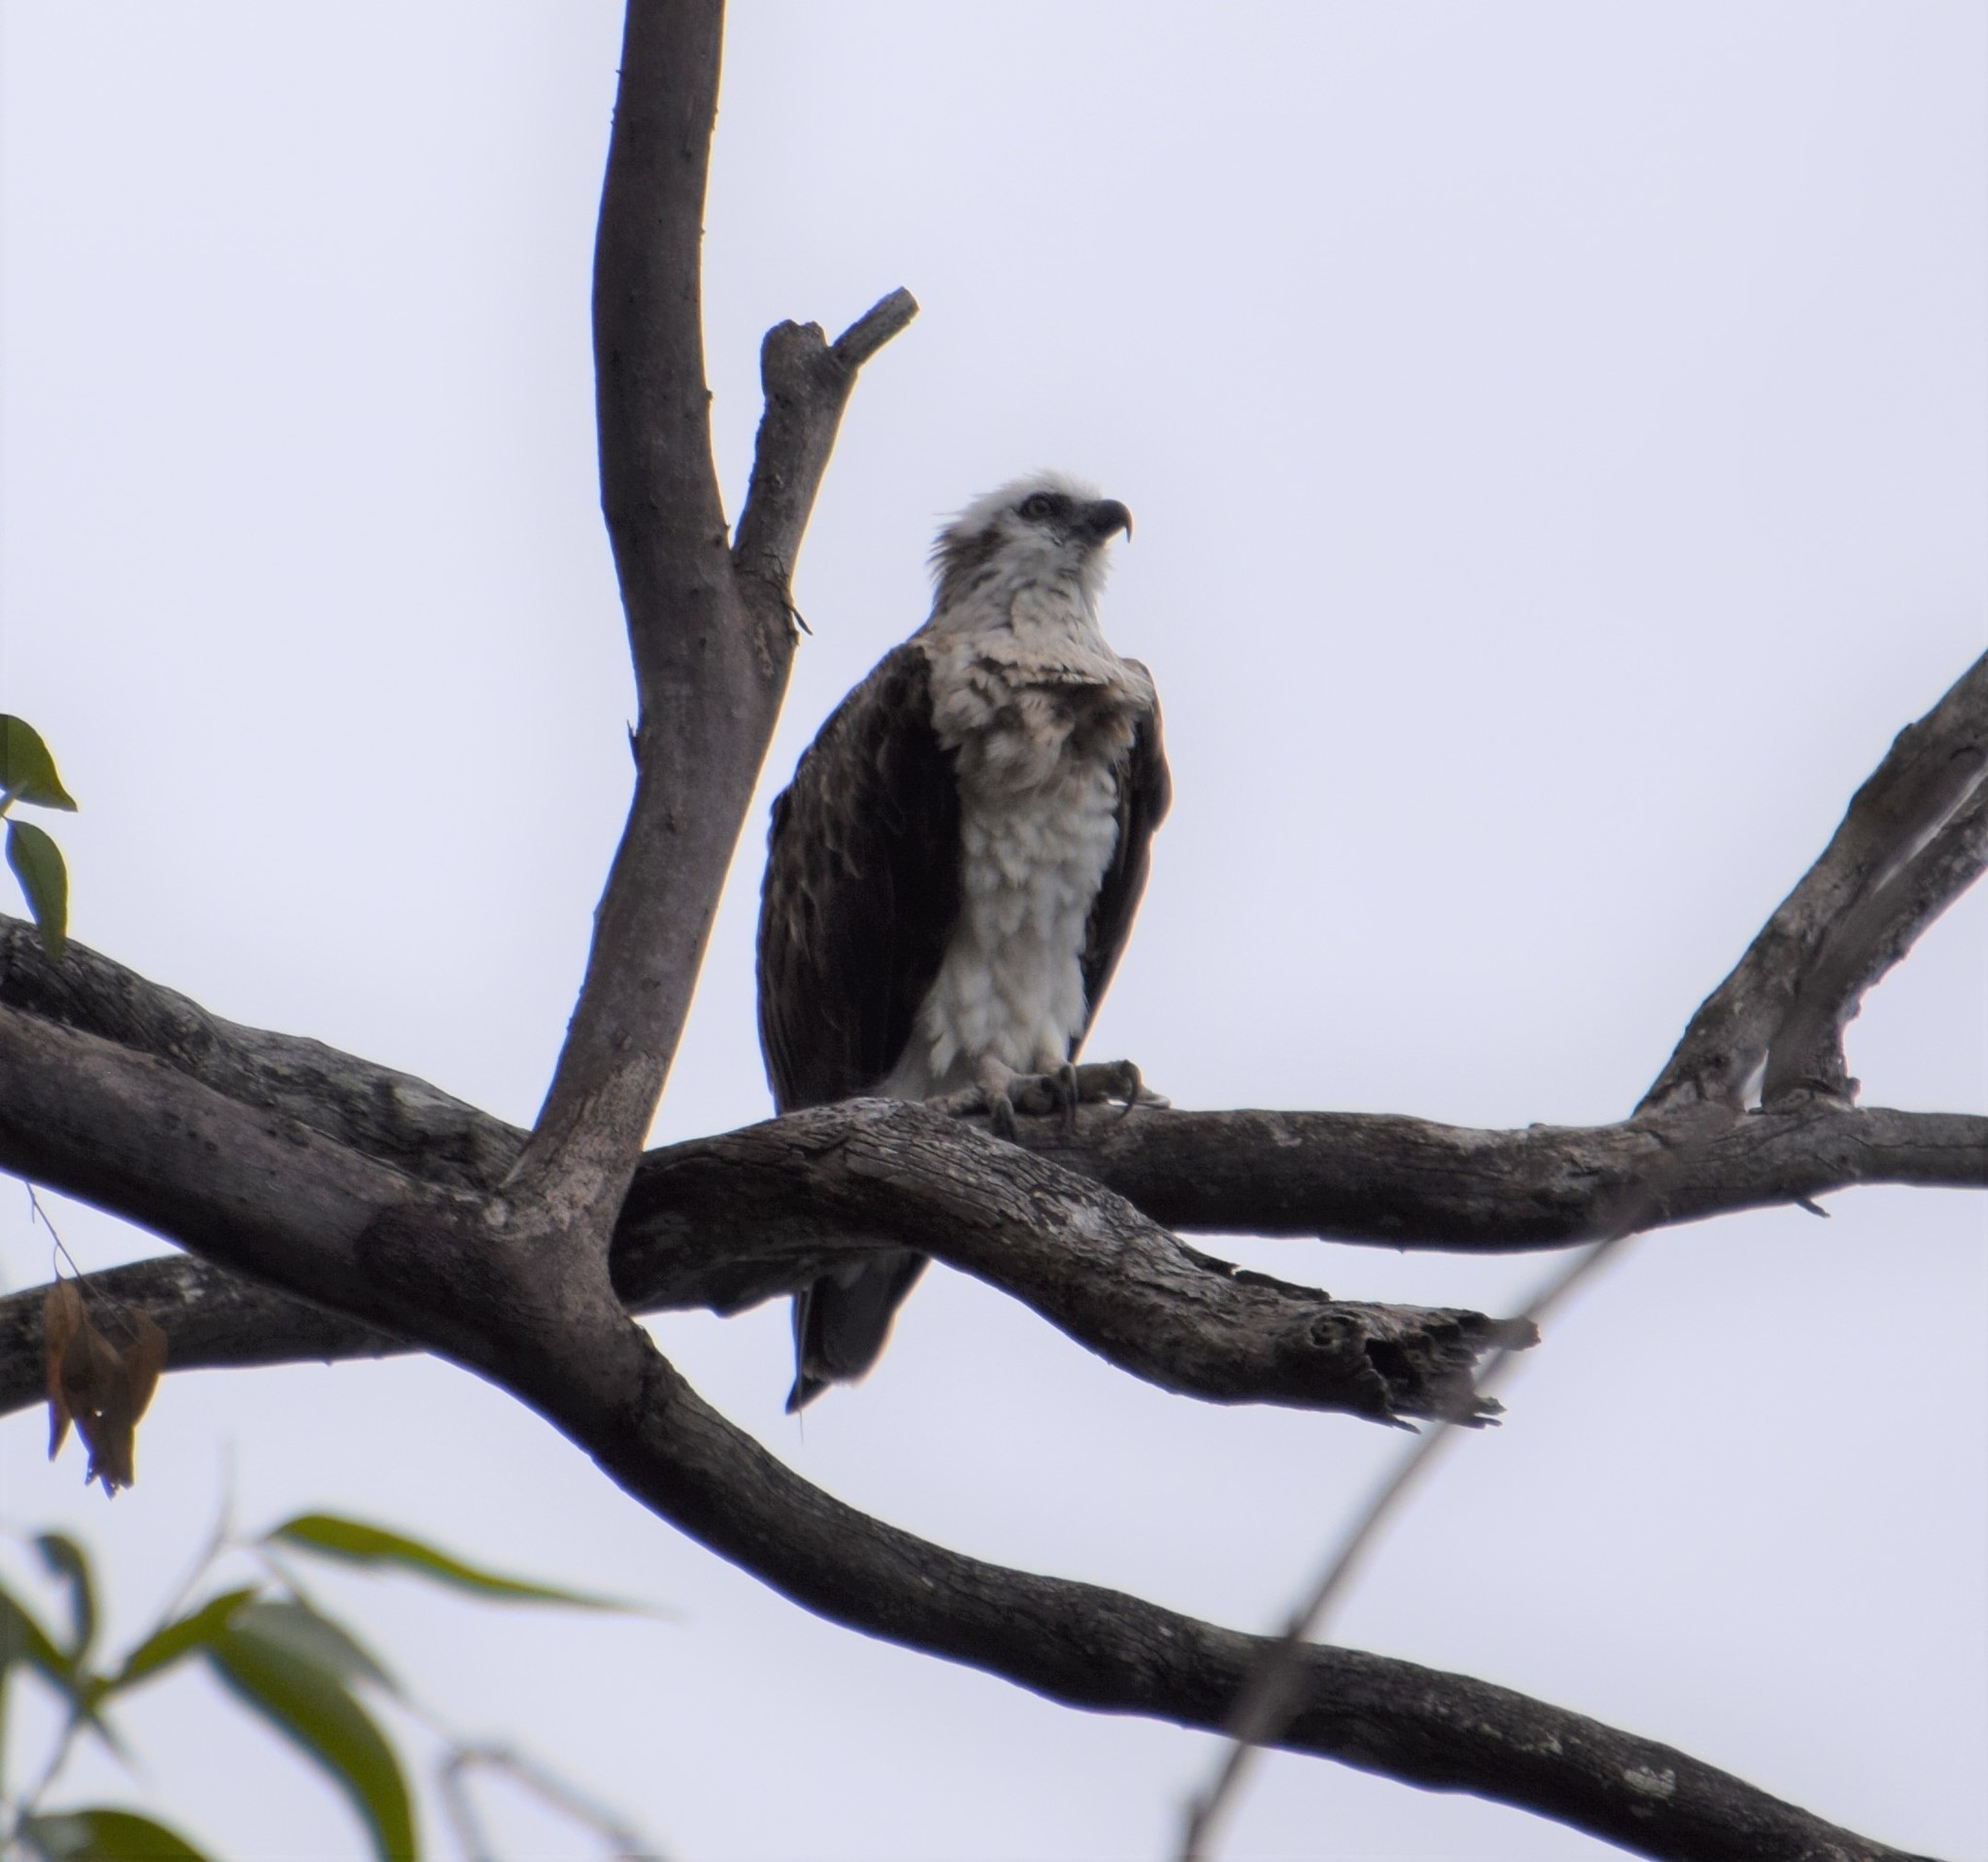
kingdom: Animalia
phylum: Chordata
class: Aves
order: Accipitriformes
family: Pandionidae
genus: Pandion
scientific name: Pandion haliaetus
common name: Osprey
